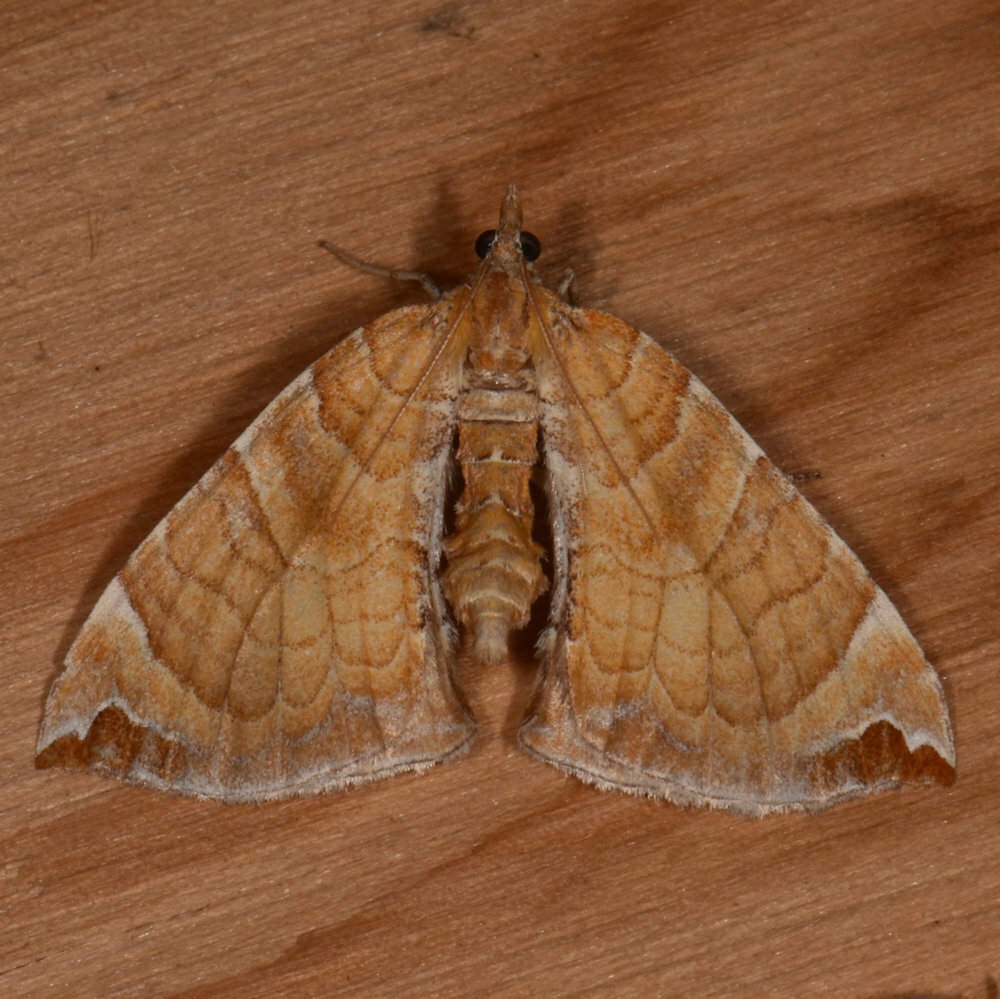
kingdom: Animalia
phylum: Arthropoda
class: Insecta
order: Lepidoptera
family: Geometridae
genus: Eulithis
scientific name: Eulithis molliculata
